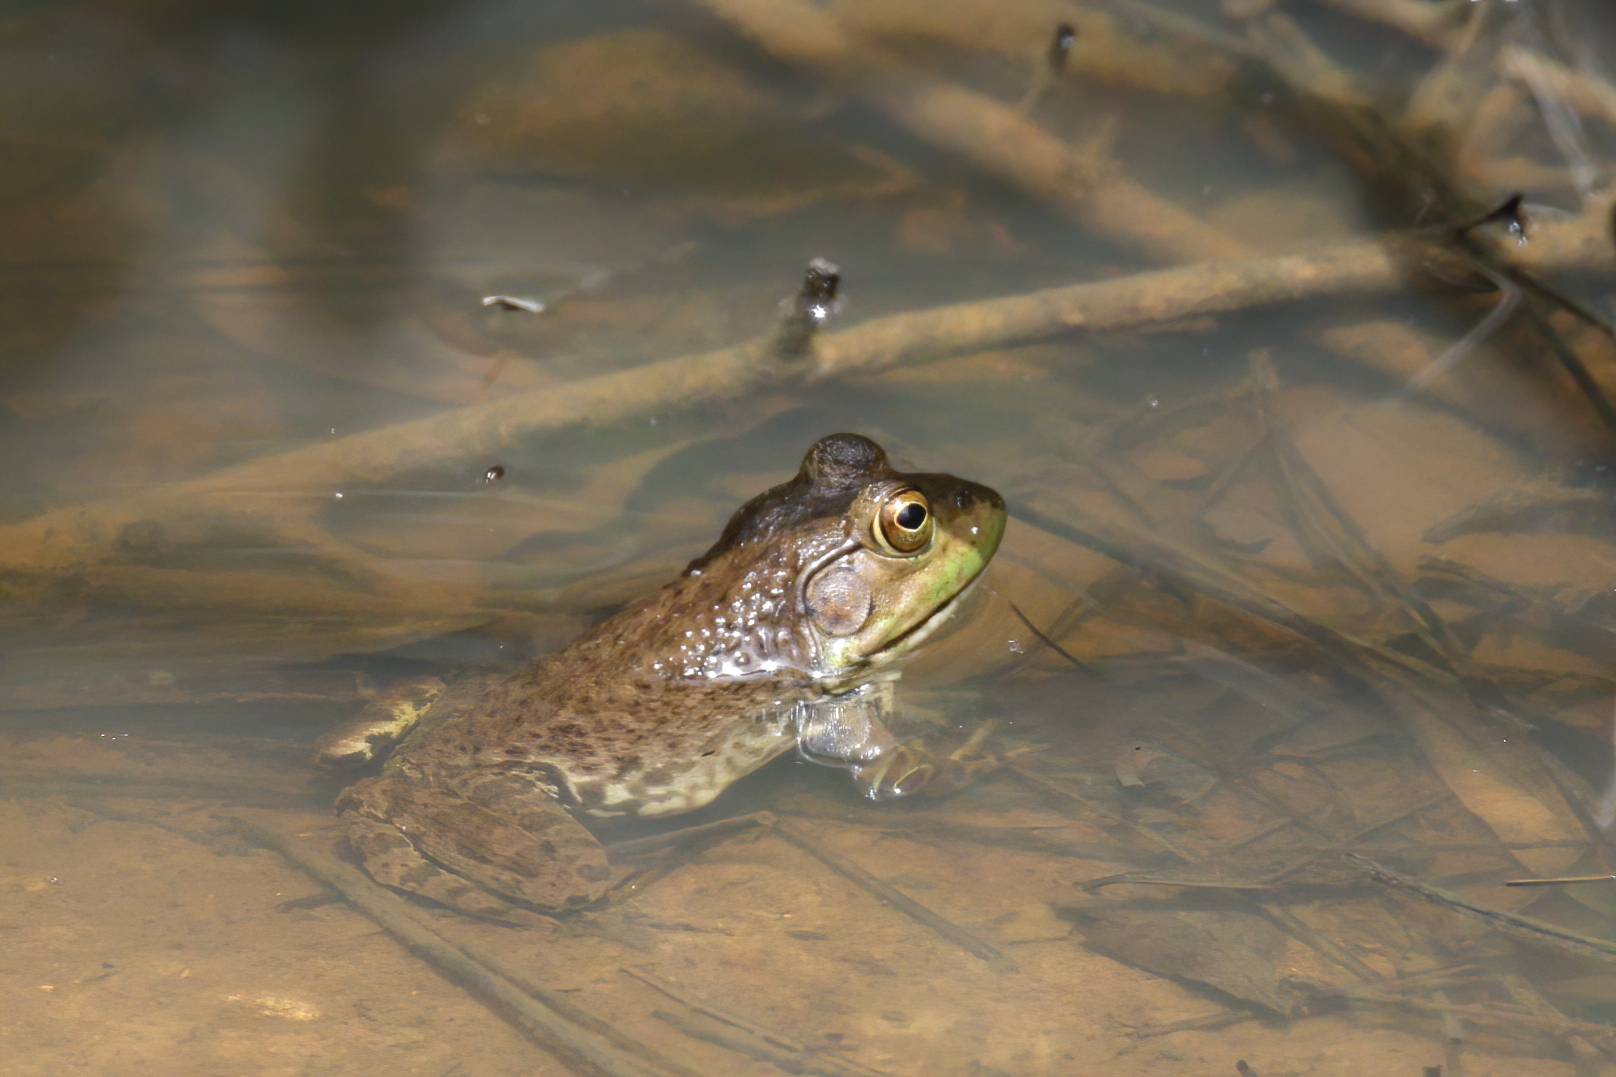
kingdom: Animalia
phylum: Chordata
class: Amphibia
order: Anura
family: Ranidae
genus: Lithobates
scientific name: Lithobates catesbeianus
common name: American bullfrog
